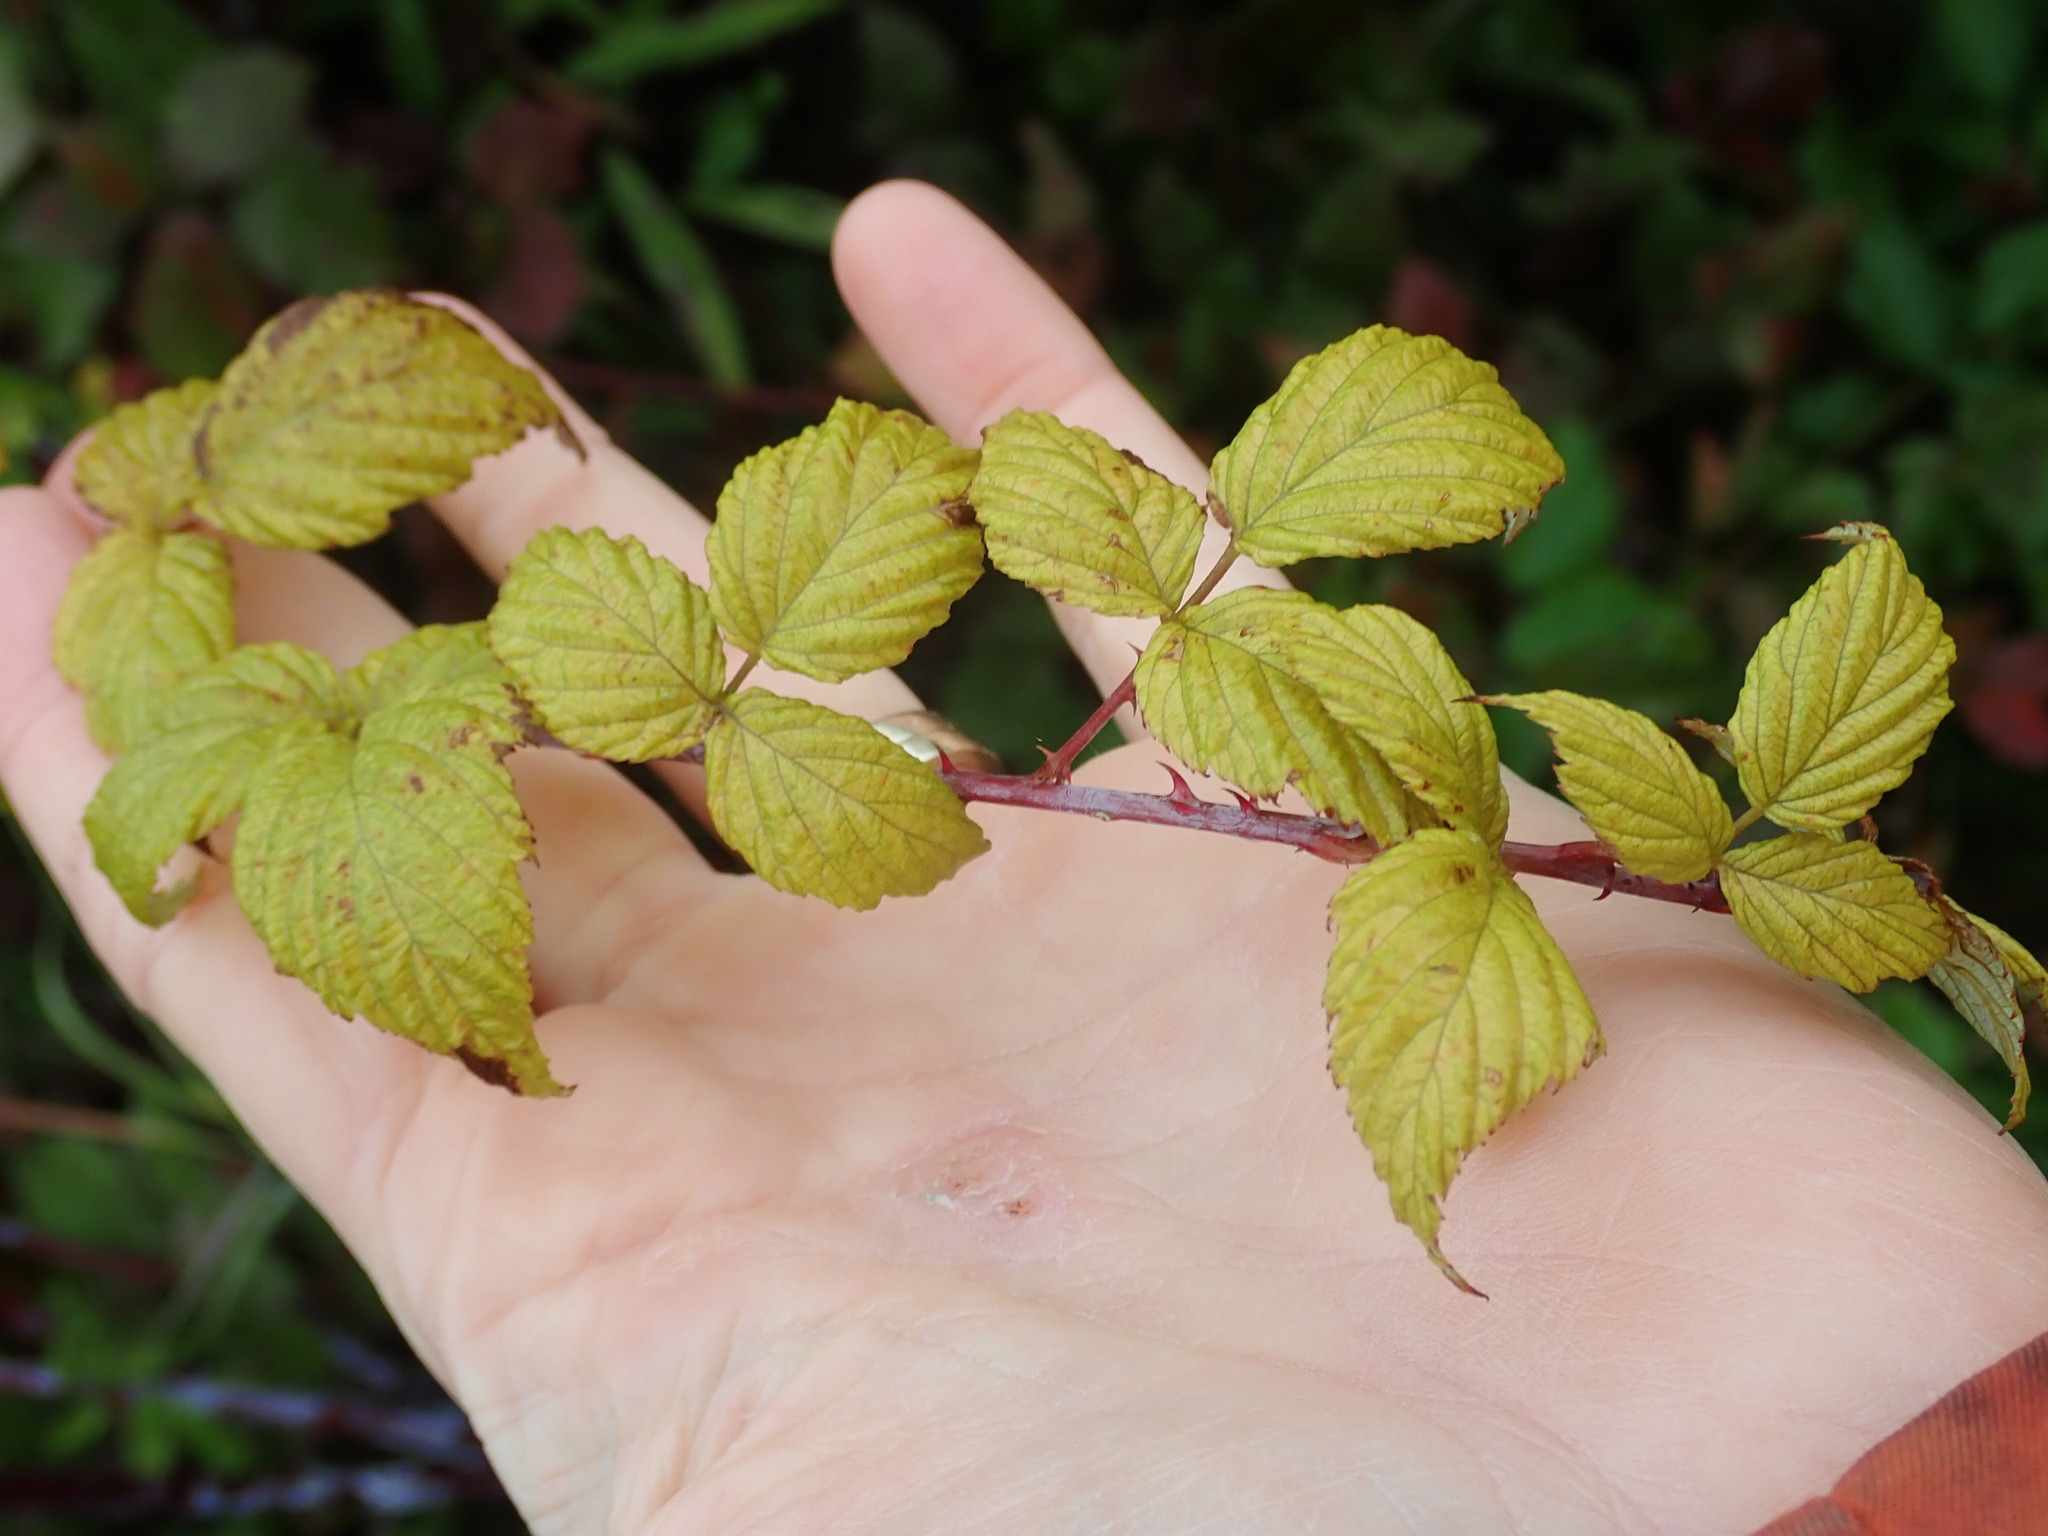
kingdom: Plantae
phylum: Tracheophyta
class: Magnoliopsida
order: Rosales
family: Rosaceae
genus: Rubus
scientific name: Rubus occidentalis
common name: Black raspberry
